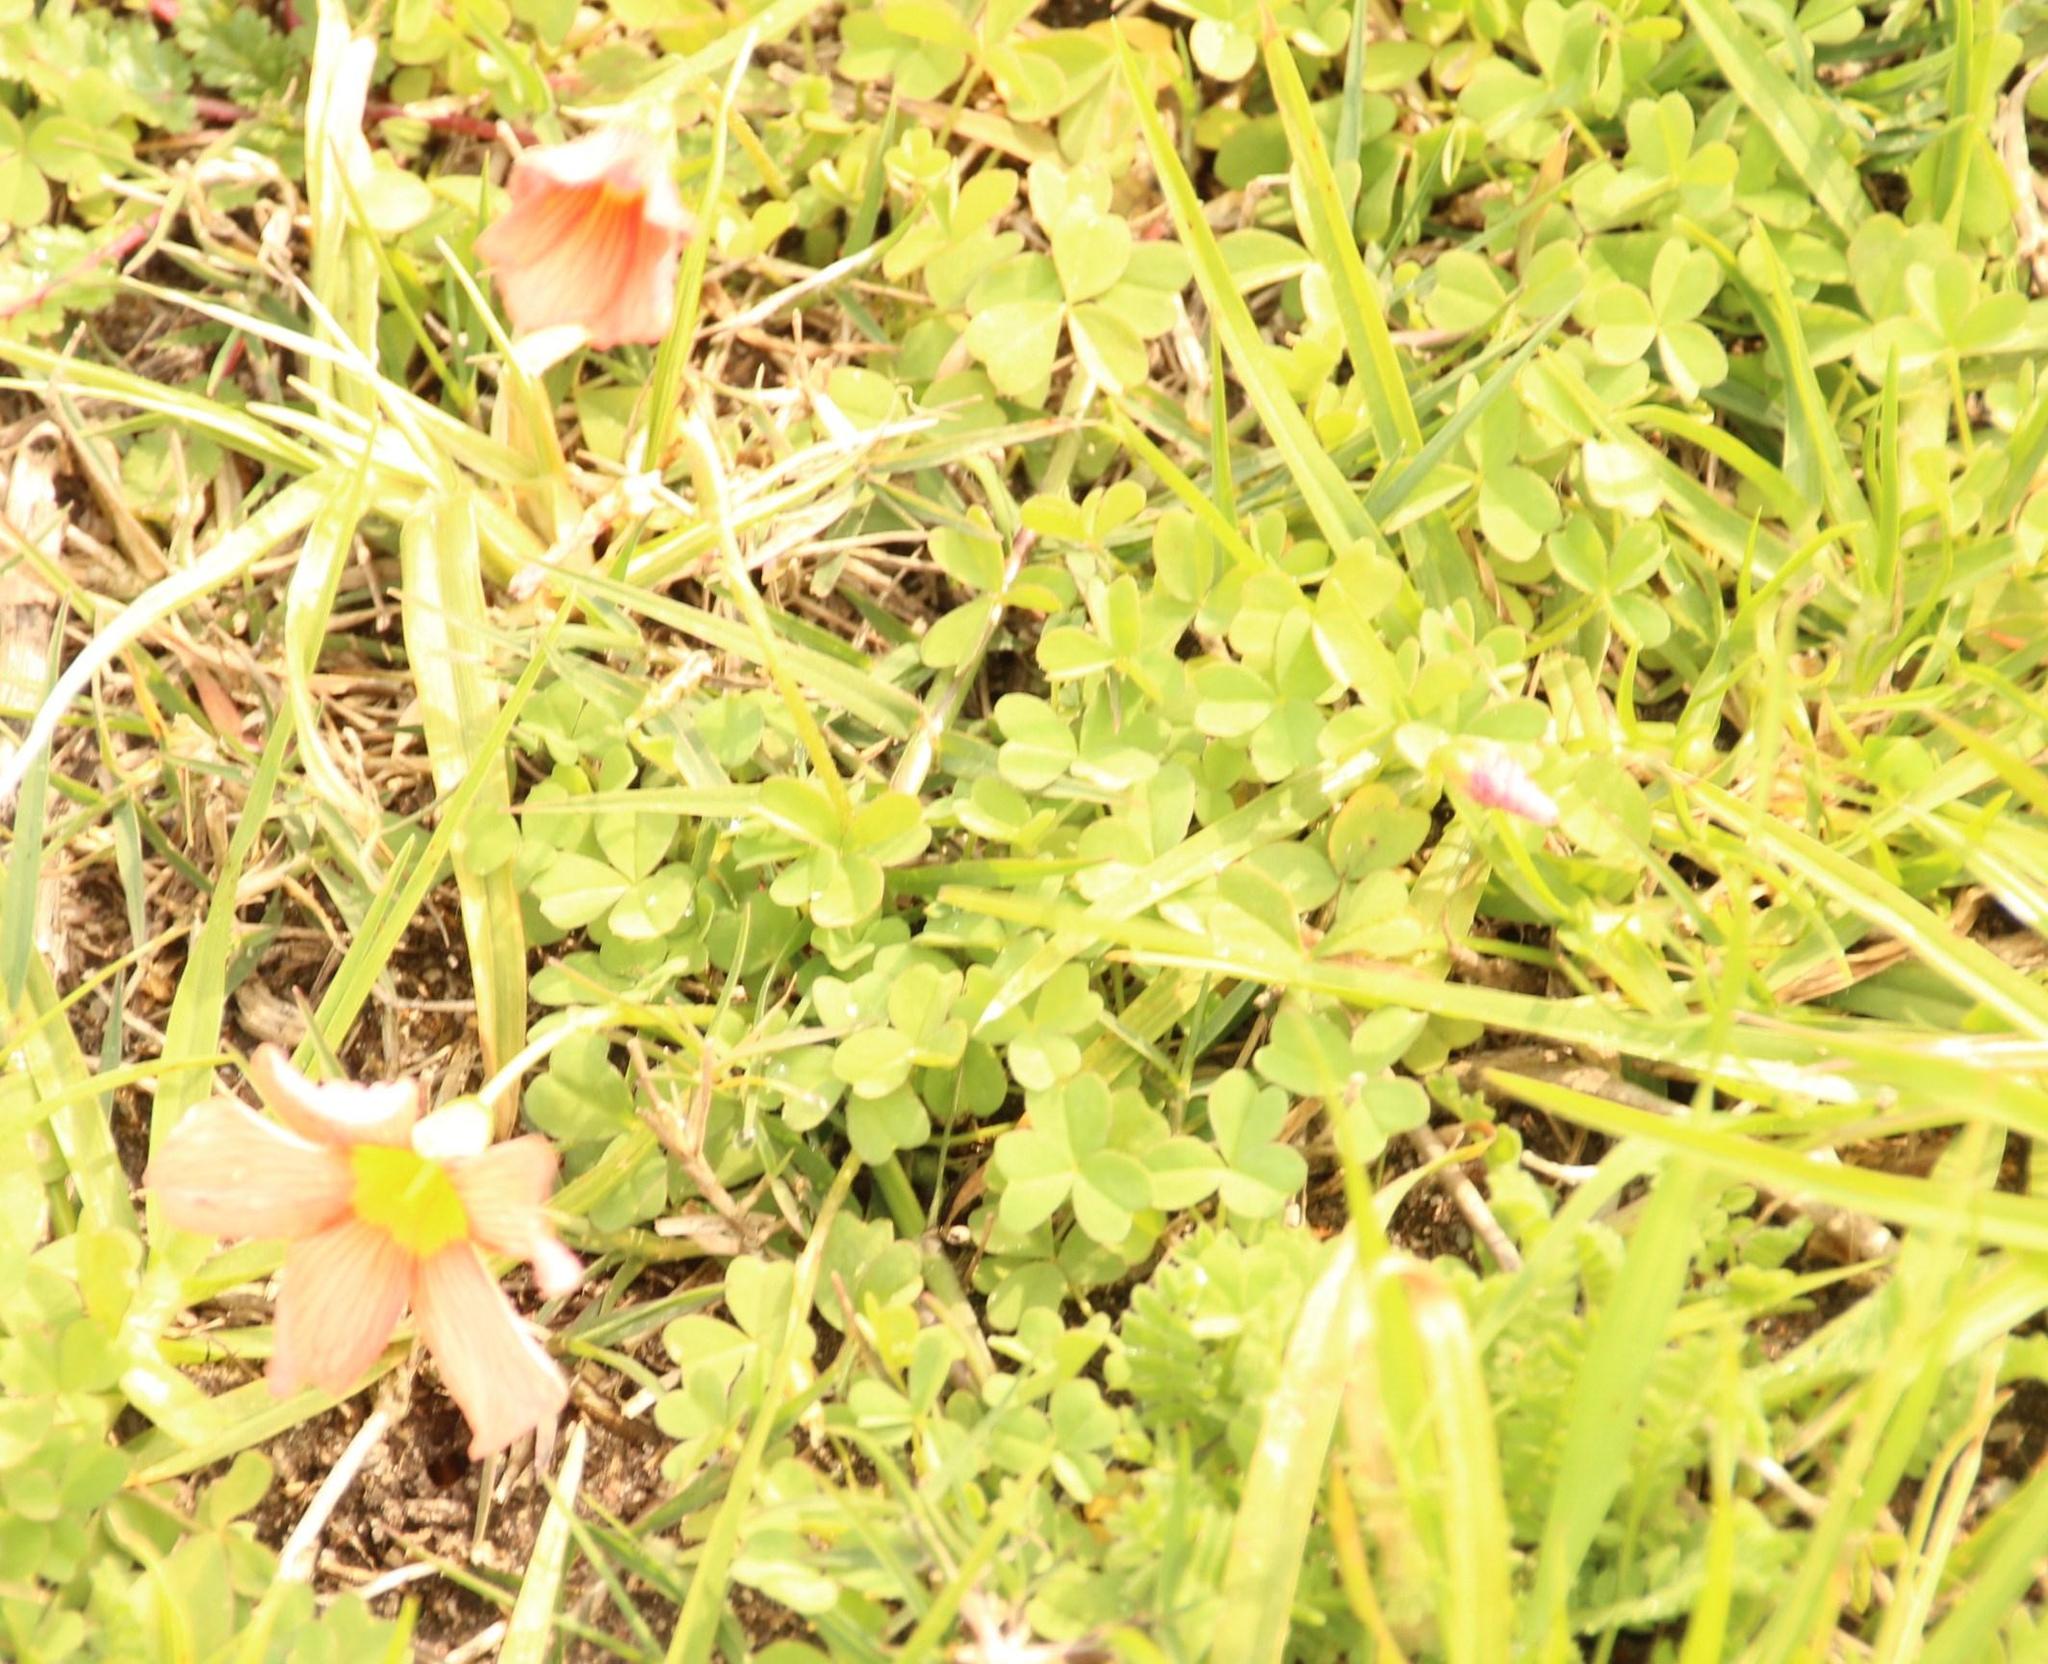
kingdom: Plantae
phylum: Tracheophyta
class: Magnoliopsida
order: Oxalidales
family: Oxalidaceae
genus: Oxalis
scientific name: Oxalis obtusa
